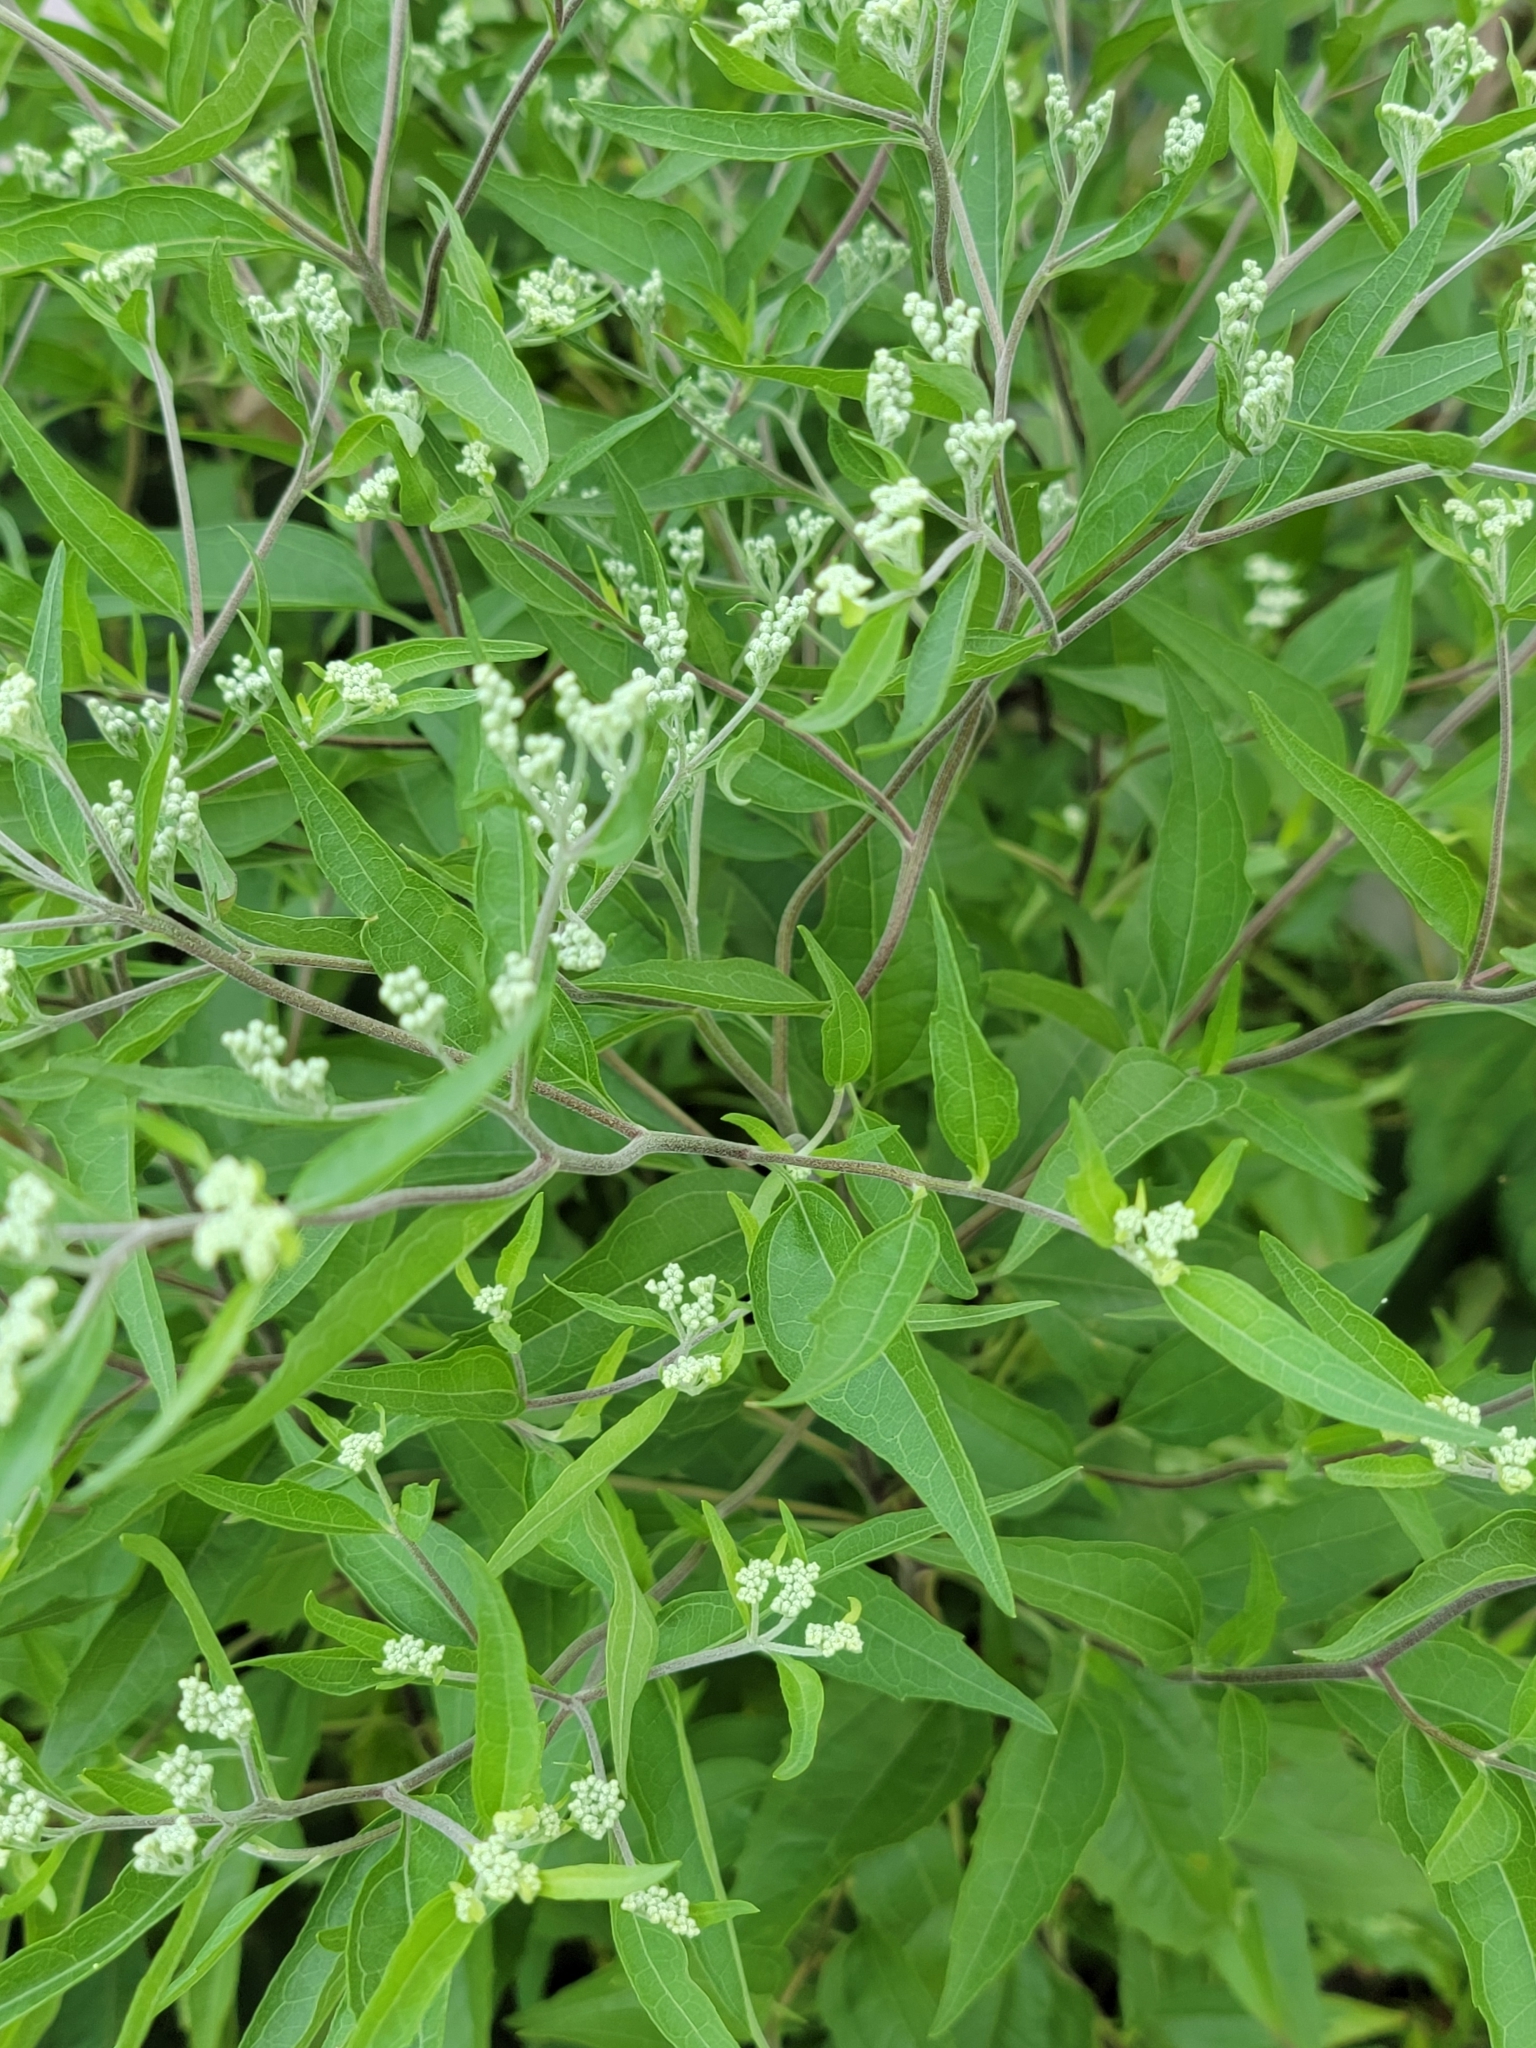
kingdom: Plantae
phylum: Tracheophyta
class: Magnoliopsida
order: Asterales
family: Asteraceae
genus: Eupatorium
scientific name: Eupatorium serotinum
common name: Late boneset
